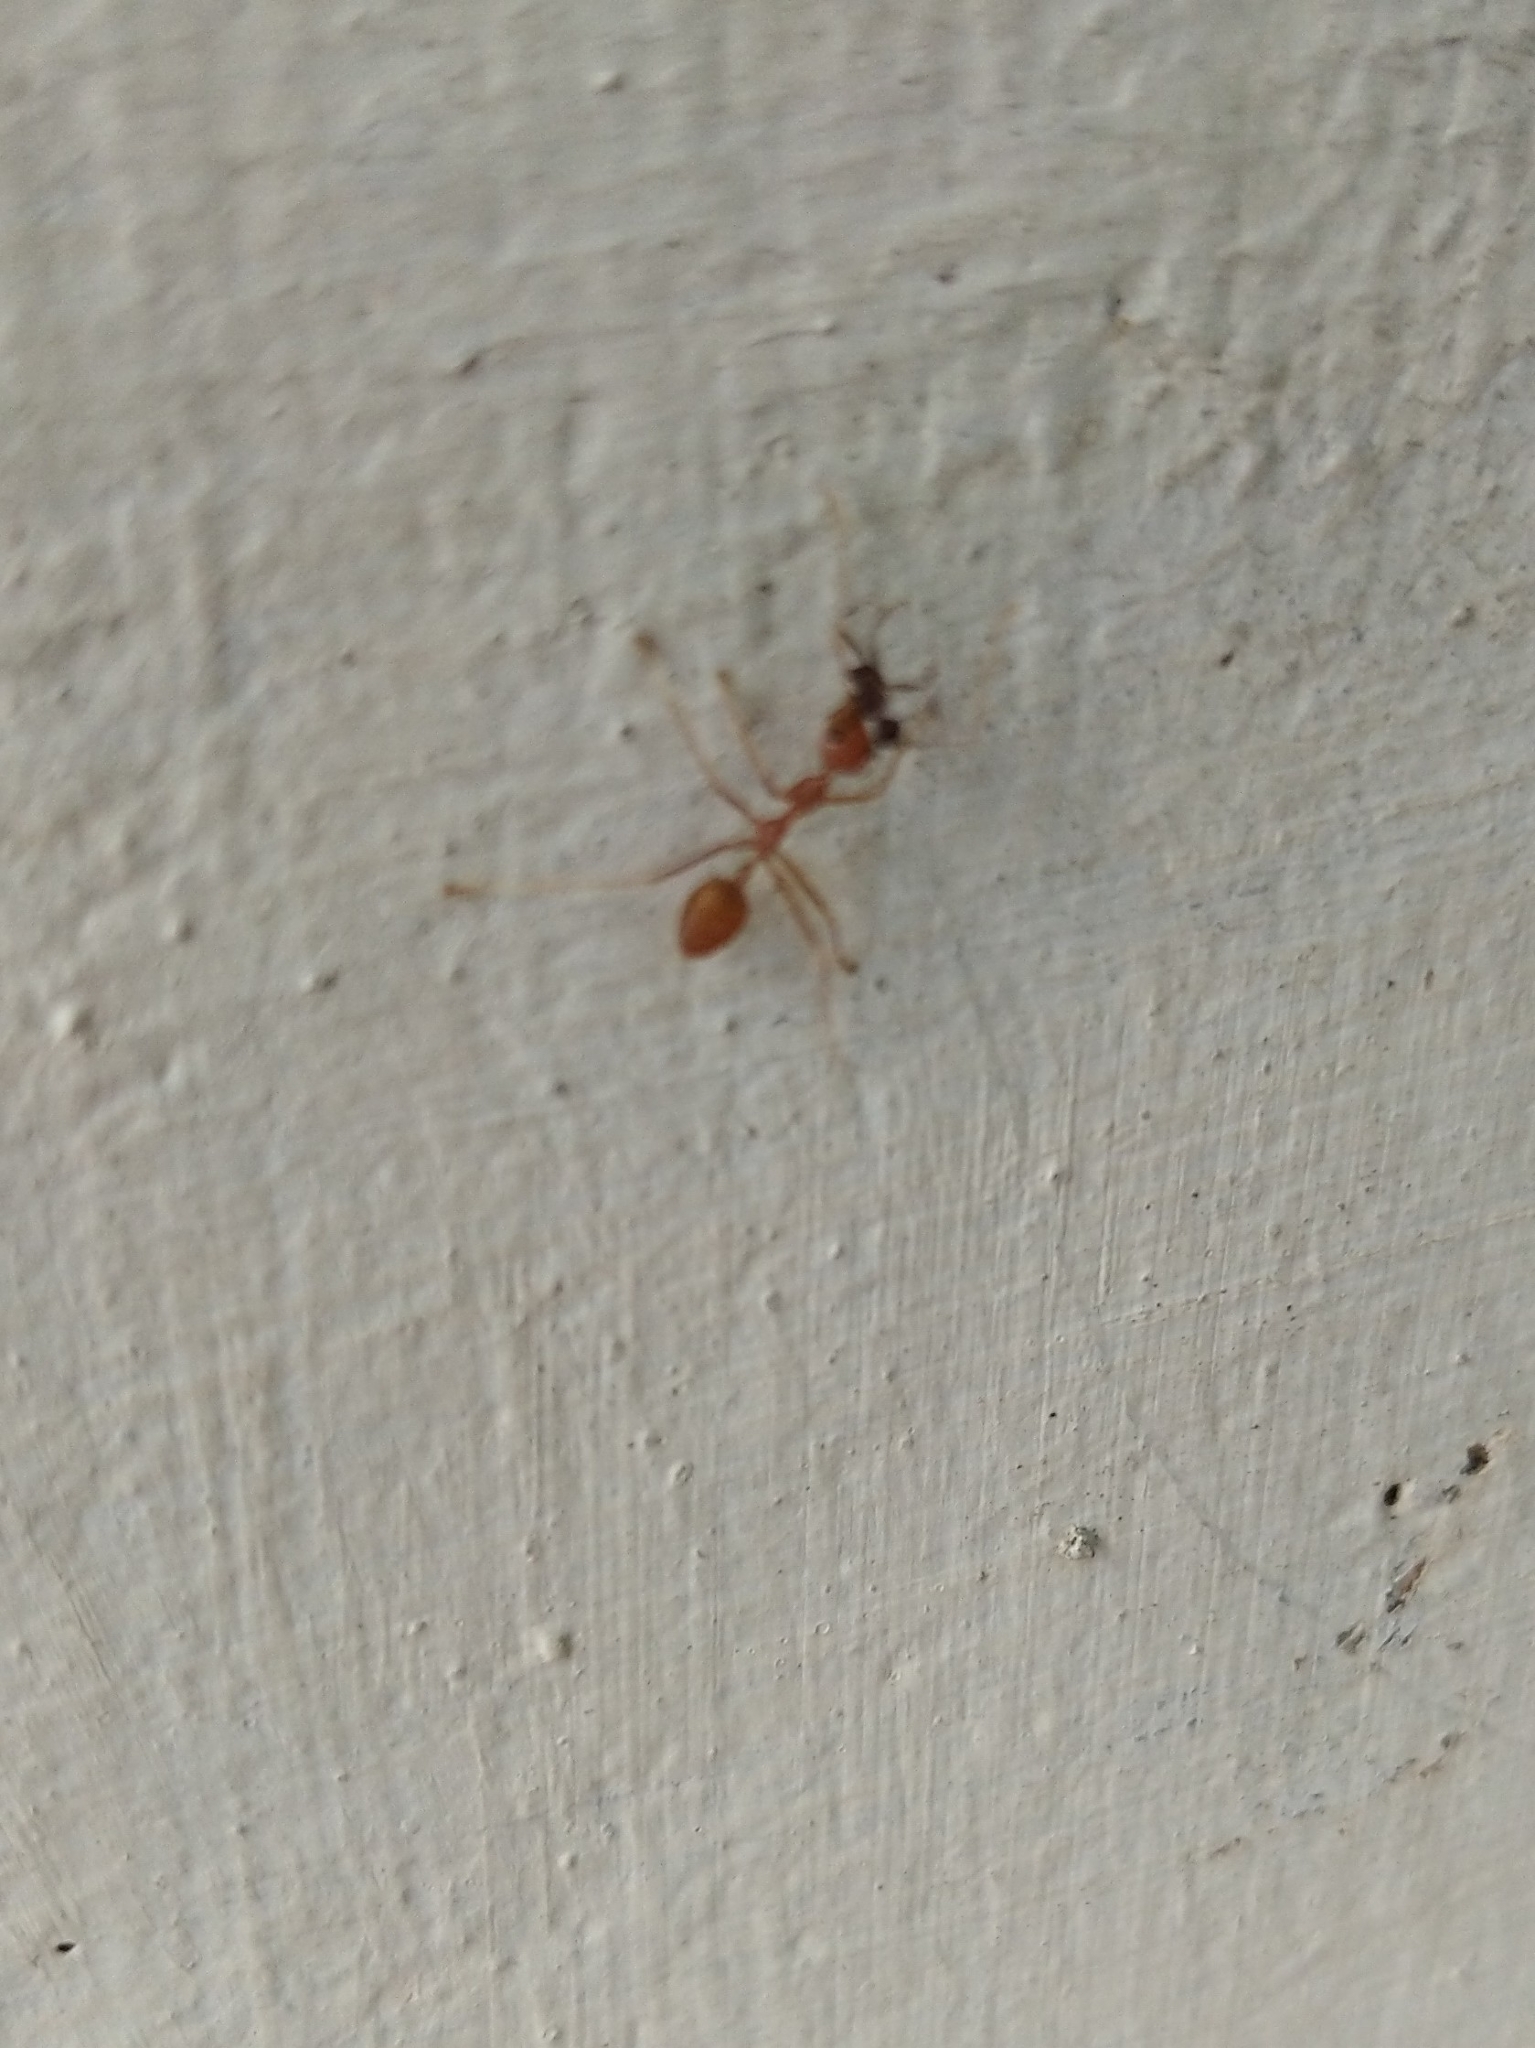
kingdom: Animalia
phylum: Arthropoda
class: Insecta
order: Hymenoptera
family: Formicidae
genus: Oecophylla
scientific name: Oecophylla smaragdina
